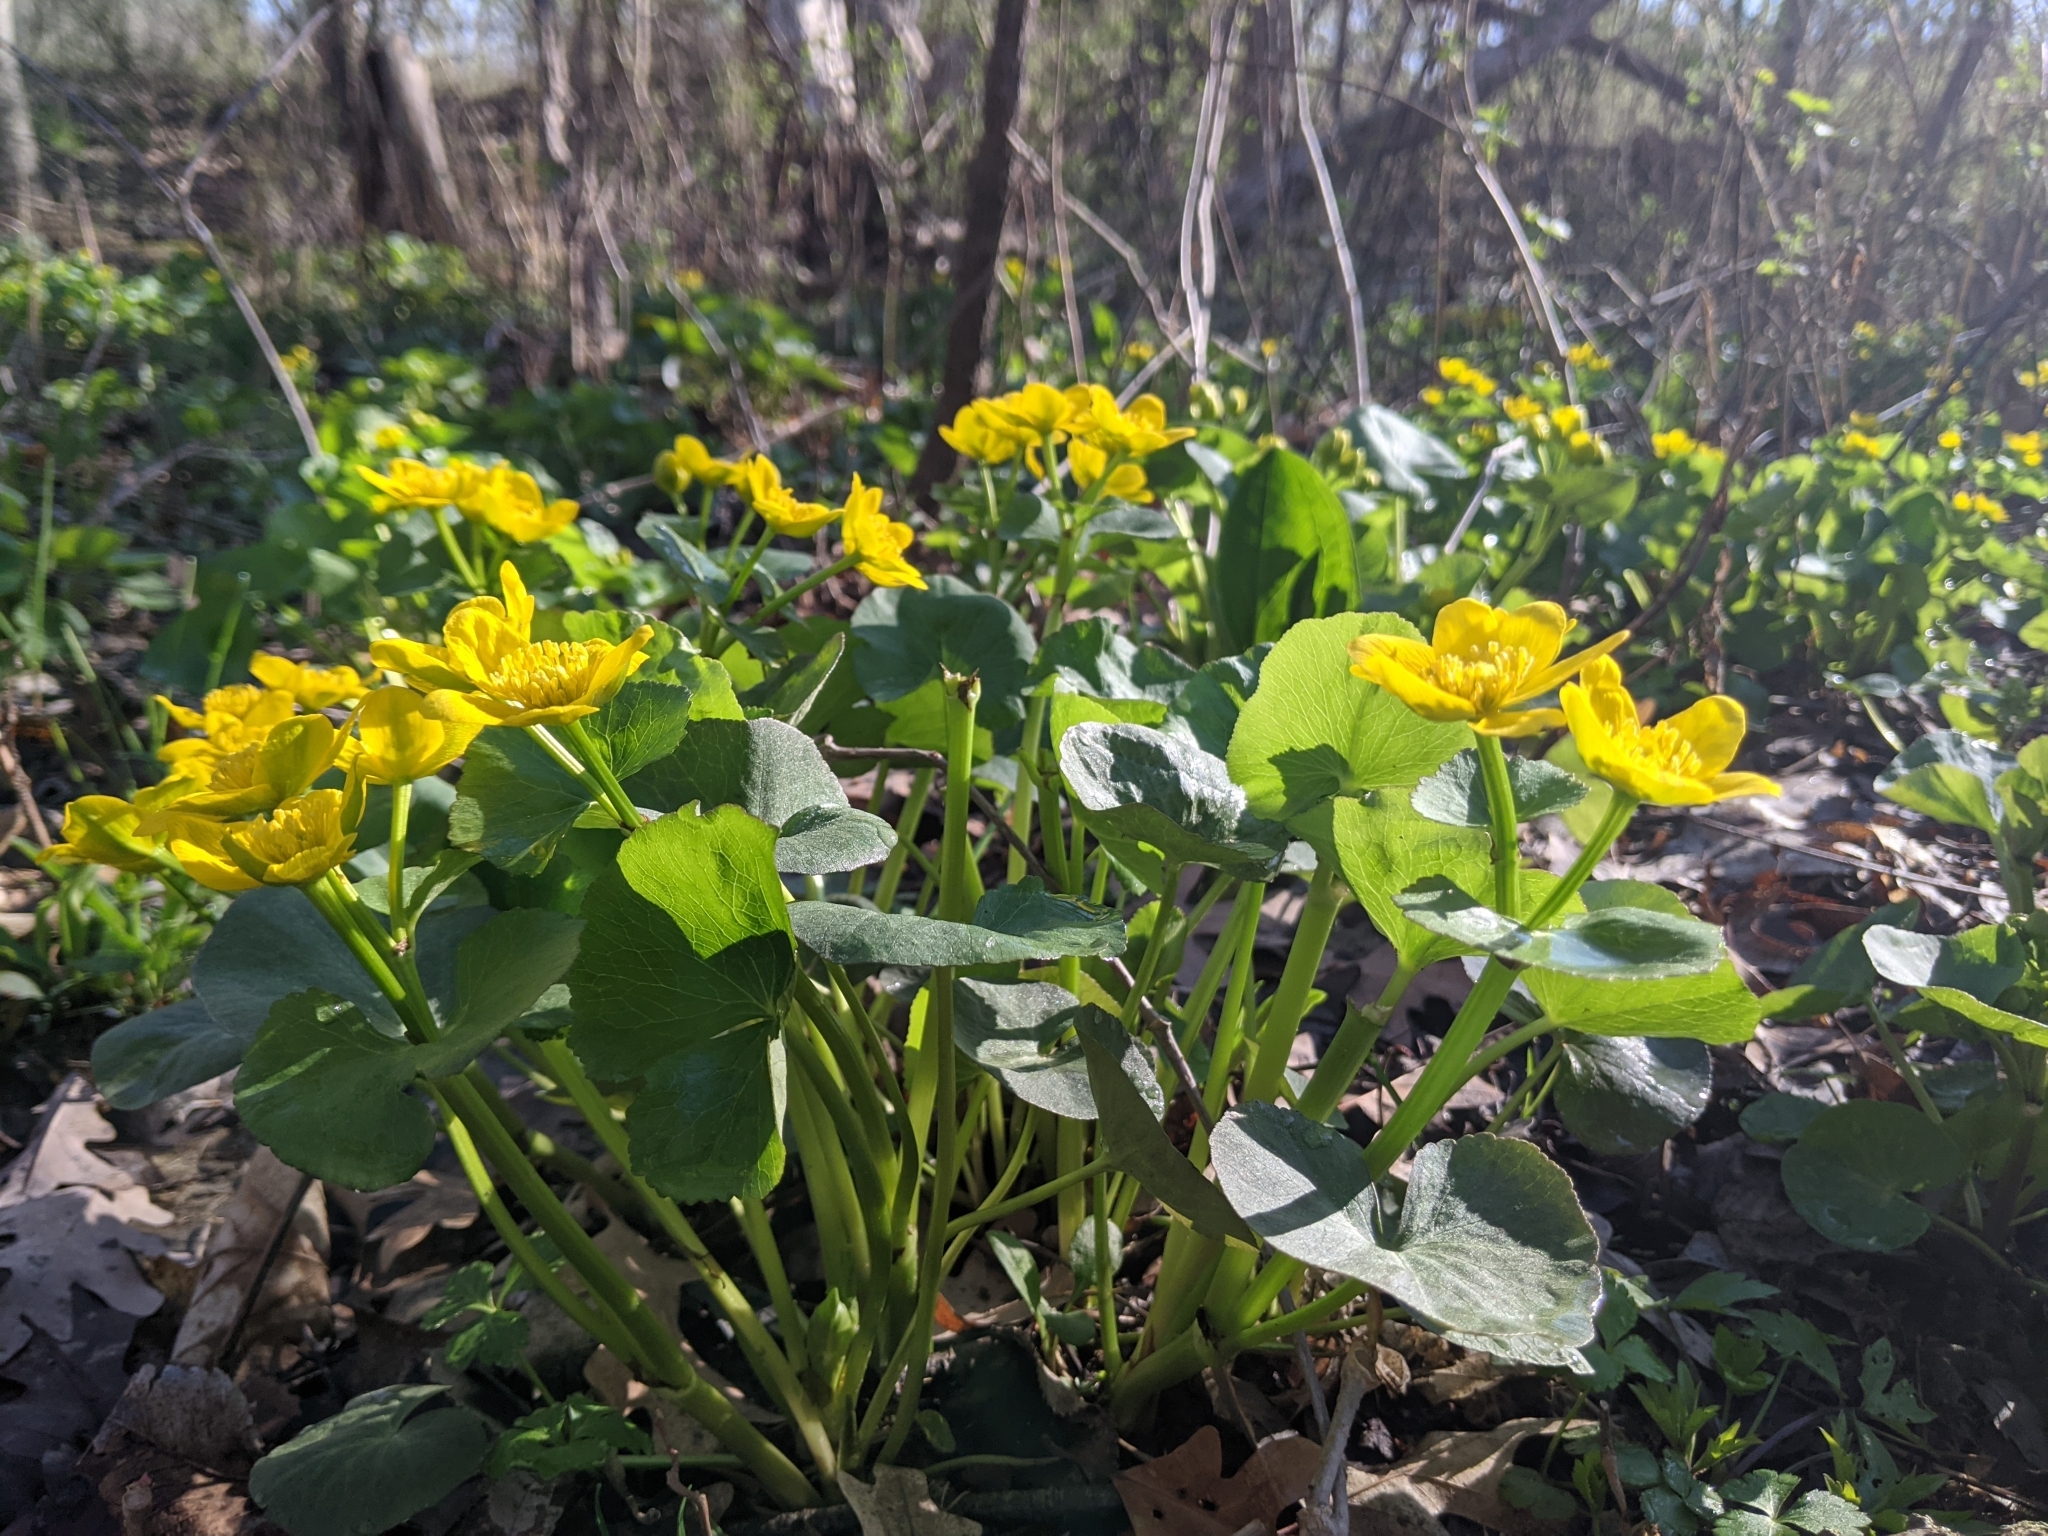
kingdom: Plantae
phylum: Tracheophyta
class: Magnoliopsida
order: Ranunculales
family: Ranunculaceae
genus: Caltha
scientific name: Caltha palustris
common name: Marsh marigold
